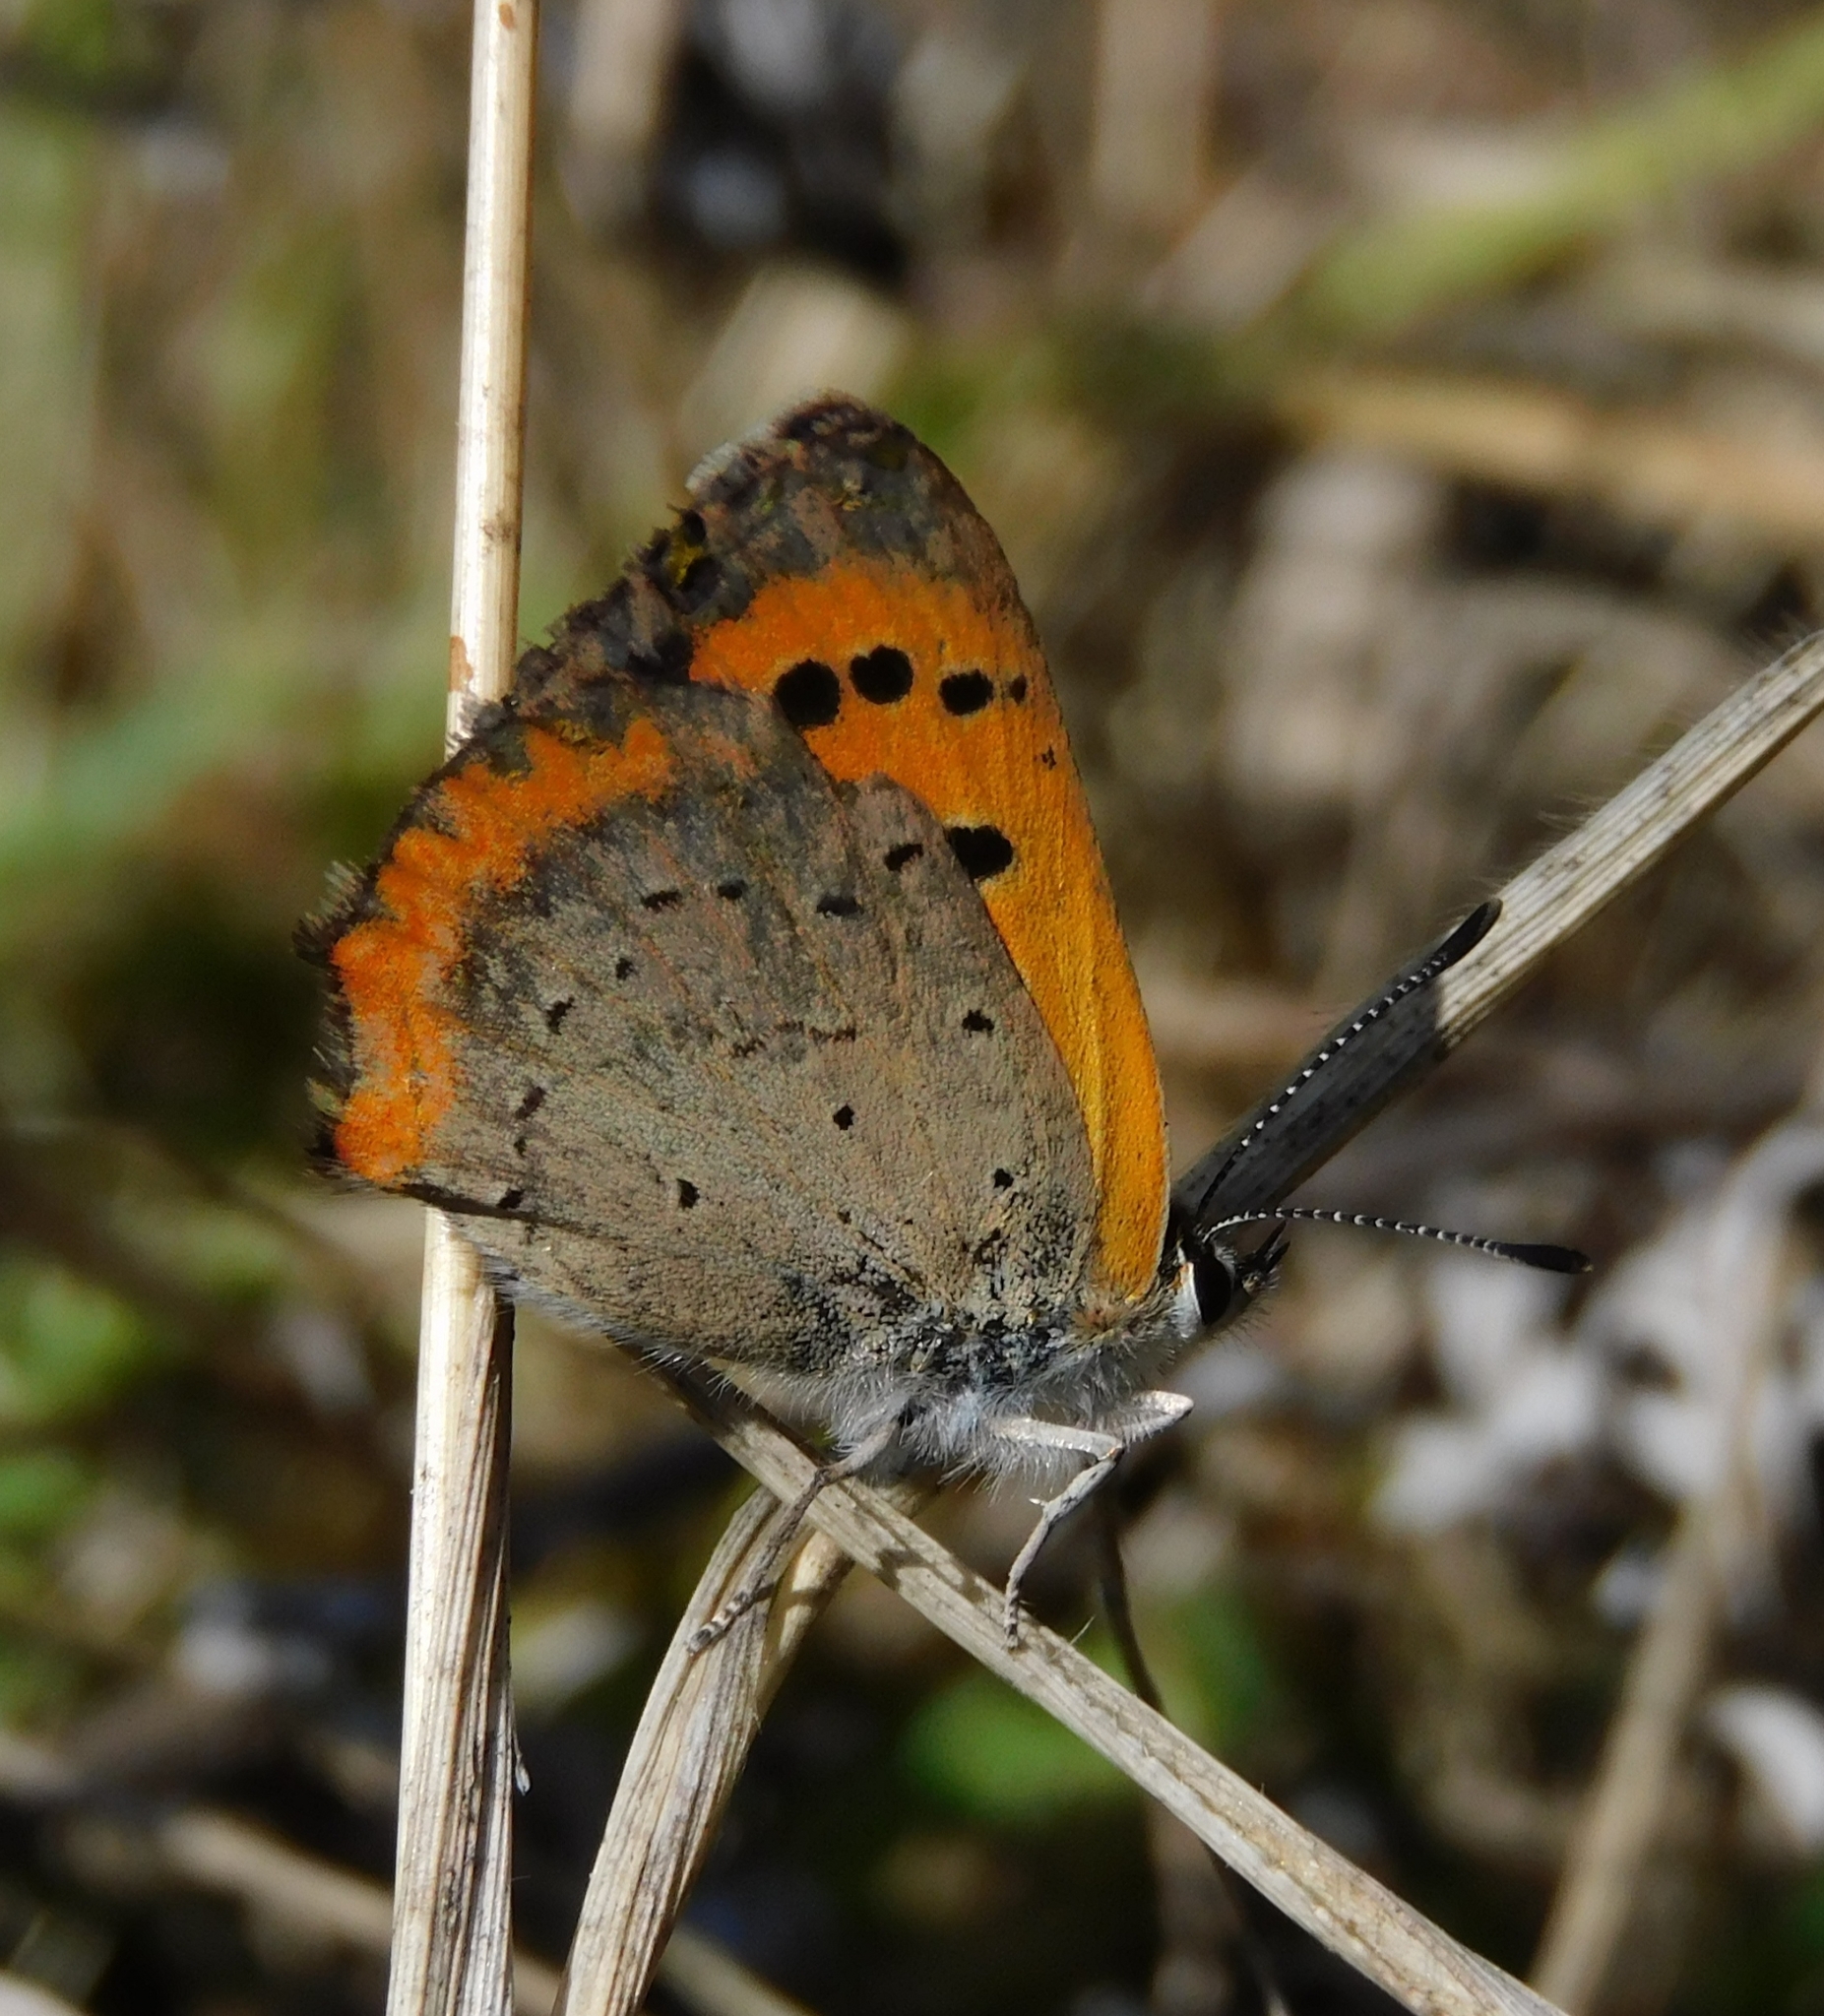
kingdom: Animalia
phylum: Arthropoda
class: Insecta
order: Lepidoptera
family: Lycaenidae
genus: Lycaena
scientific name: Lycaena phlaeas
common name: Small copper
